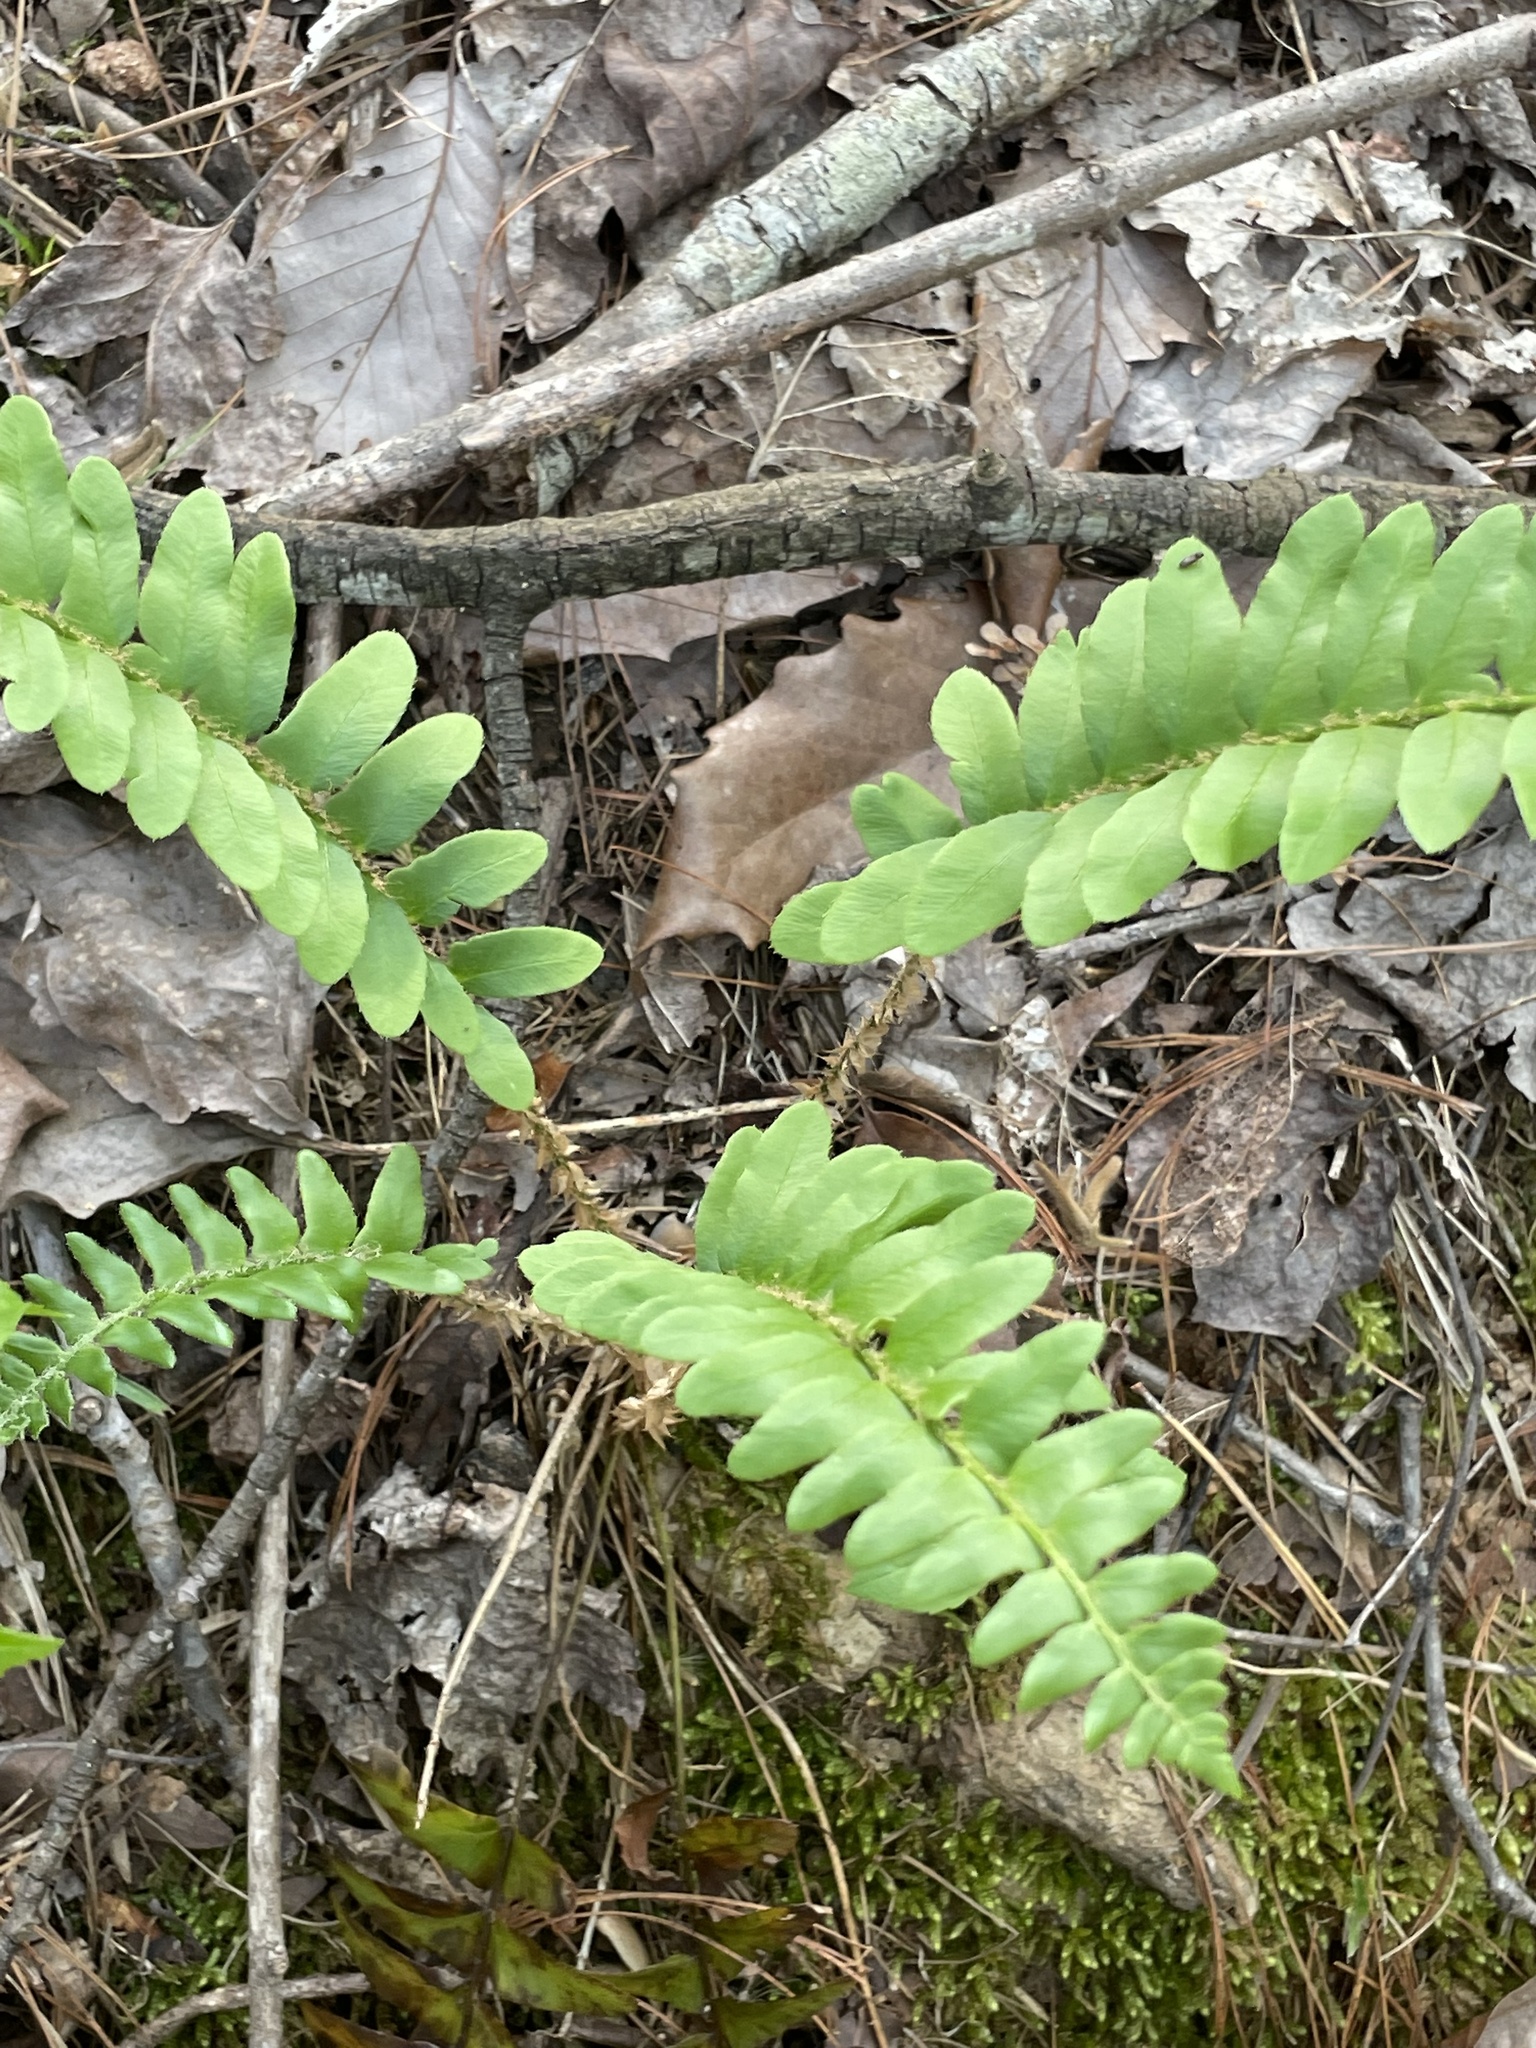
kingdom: Plantae
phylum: Tracheophyta
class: Polypodiopsida
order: Polypodiales
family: Dryopteridaceae
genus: Polystichum
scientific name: Polystichum acrostichoides
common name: Christmas fern
